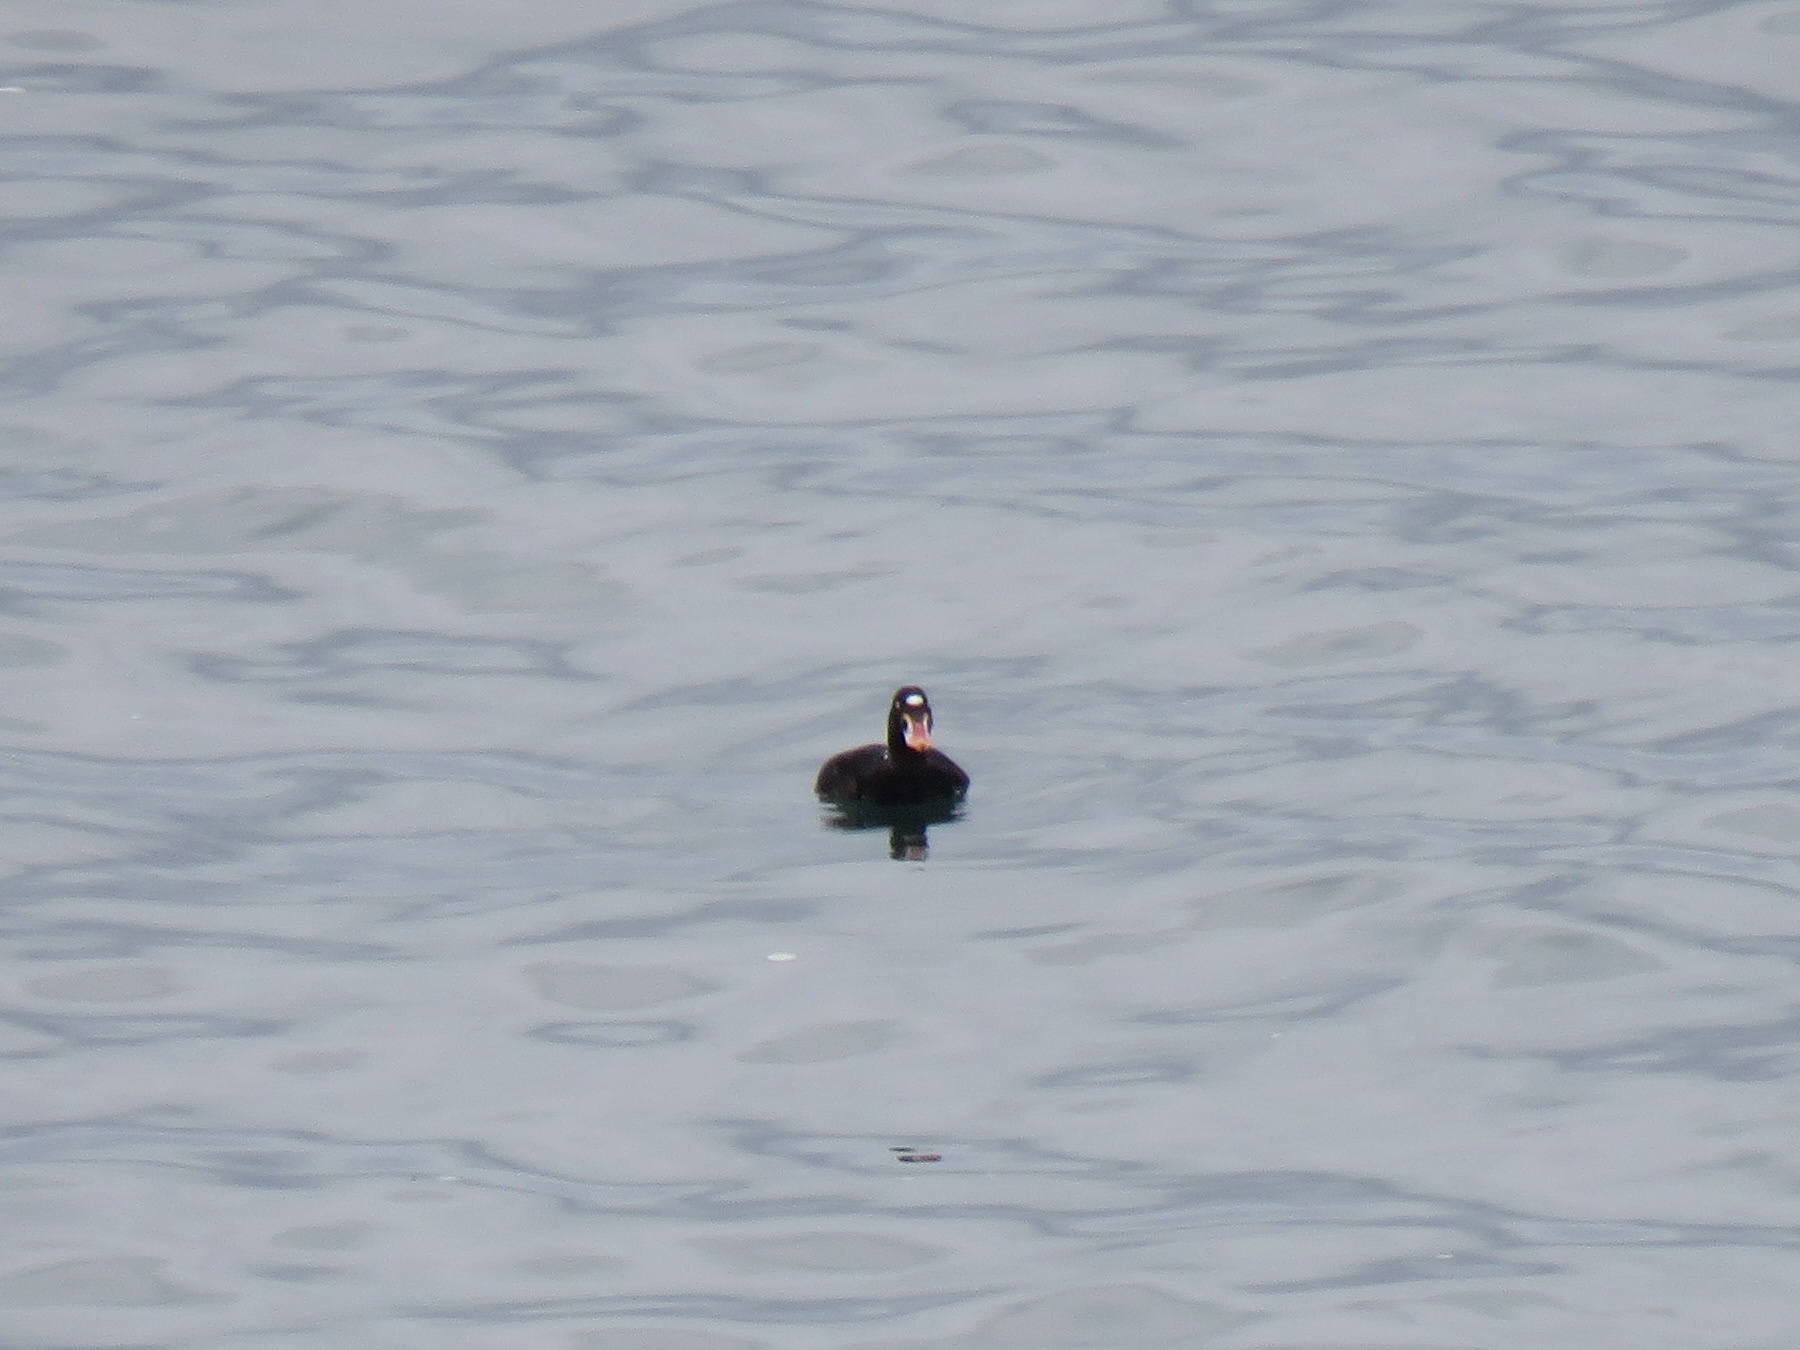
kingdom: Animalia
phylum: Chordata
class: Aves
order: Anseriformes
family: Anatidae
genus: Melanitta
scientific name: Melanitta perspicillata
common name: Surf scoter
